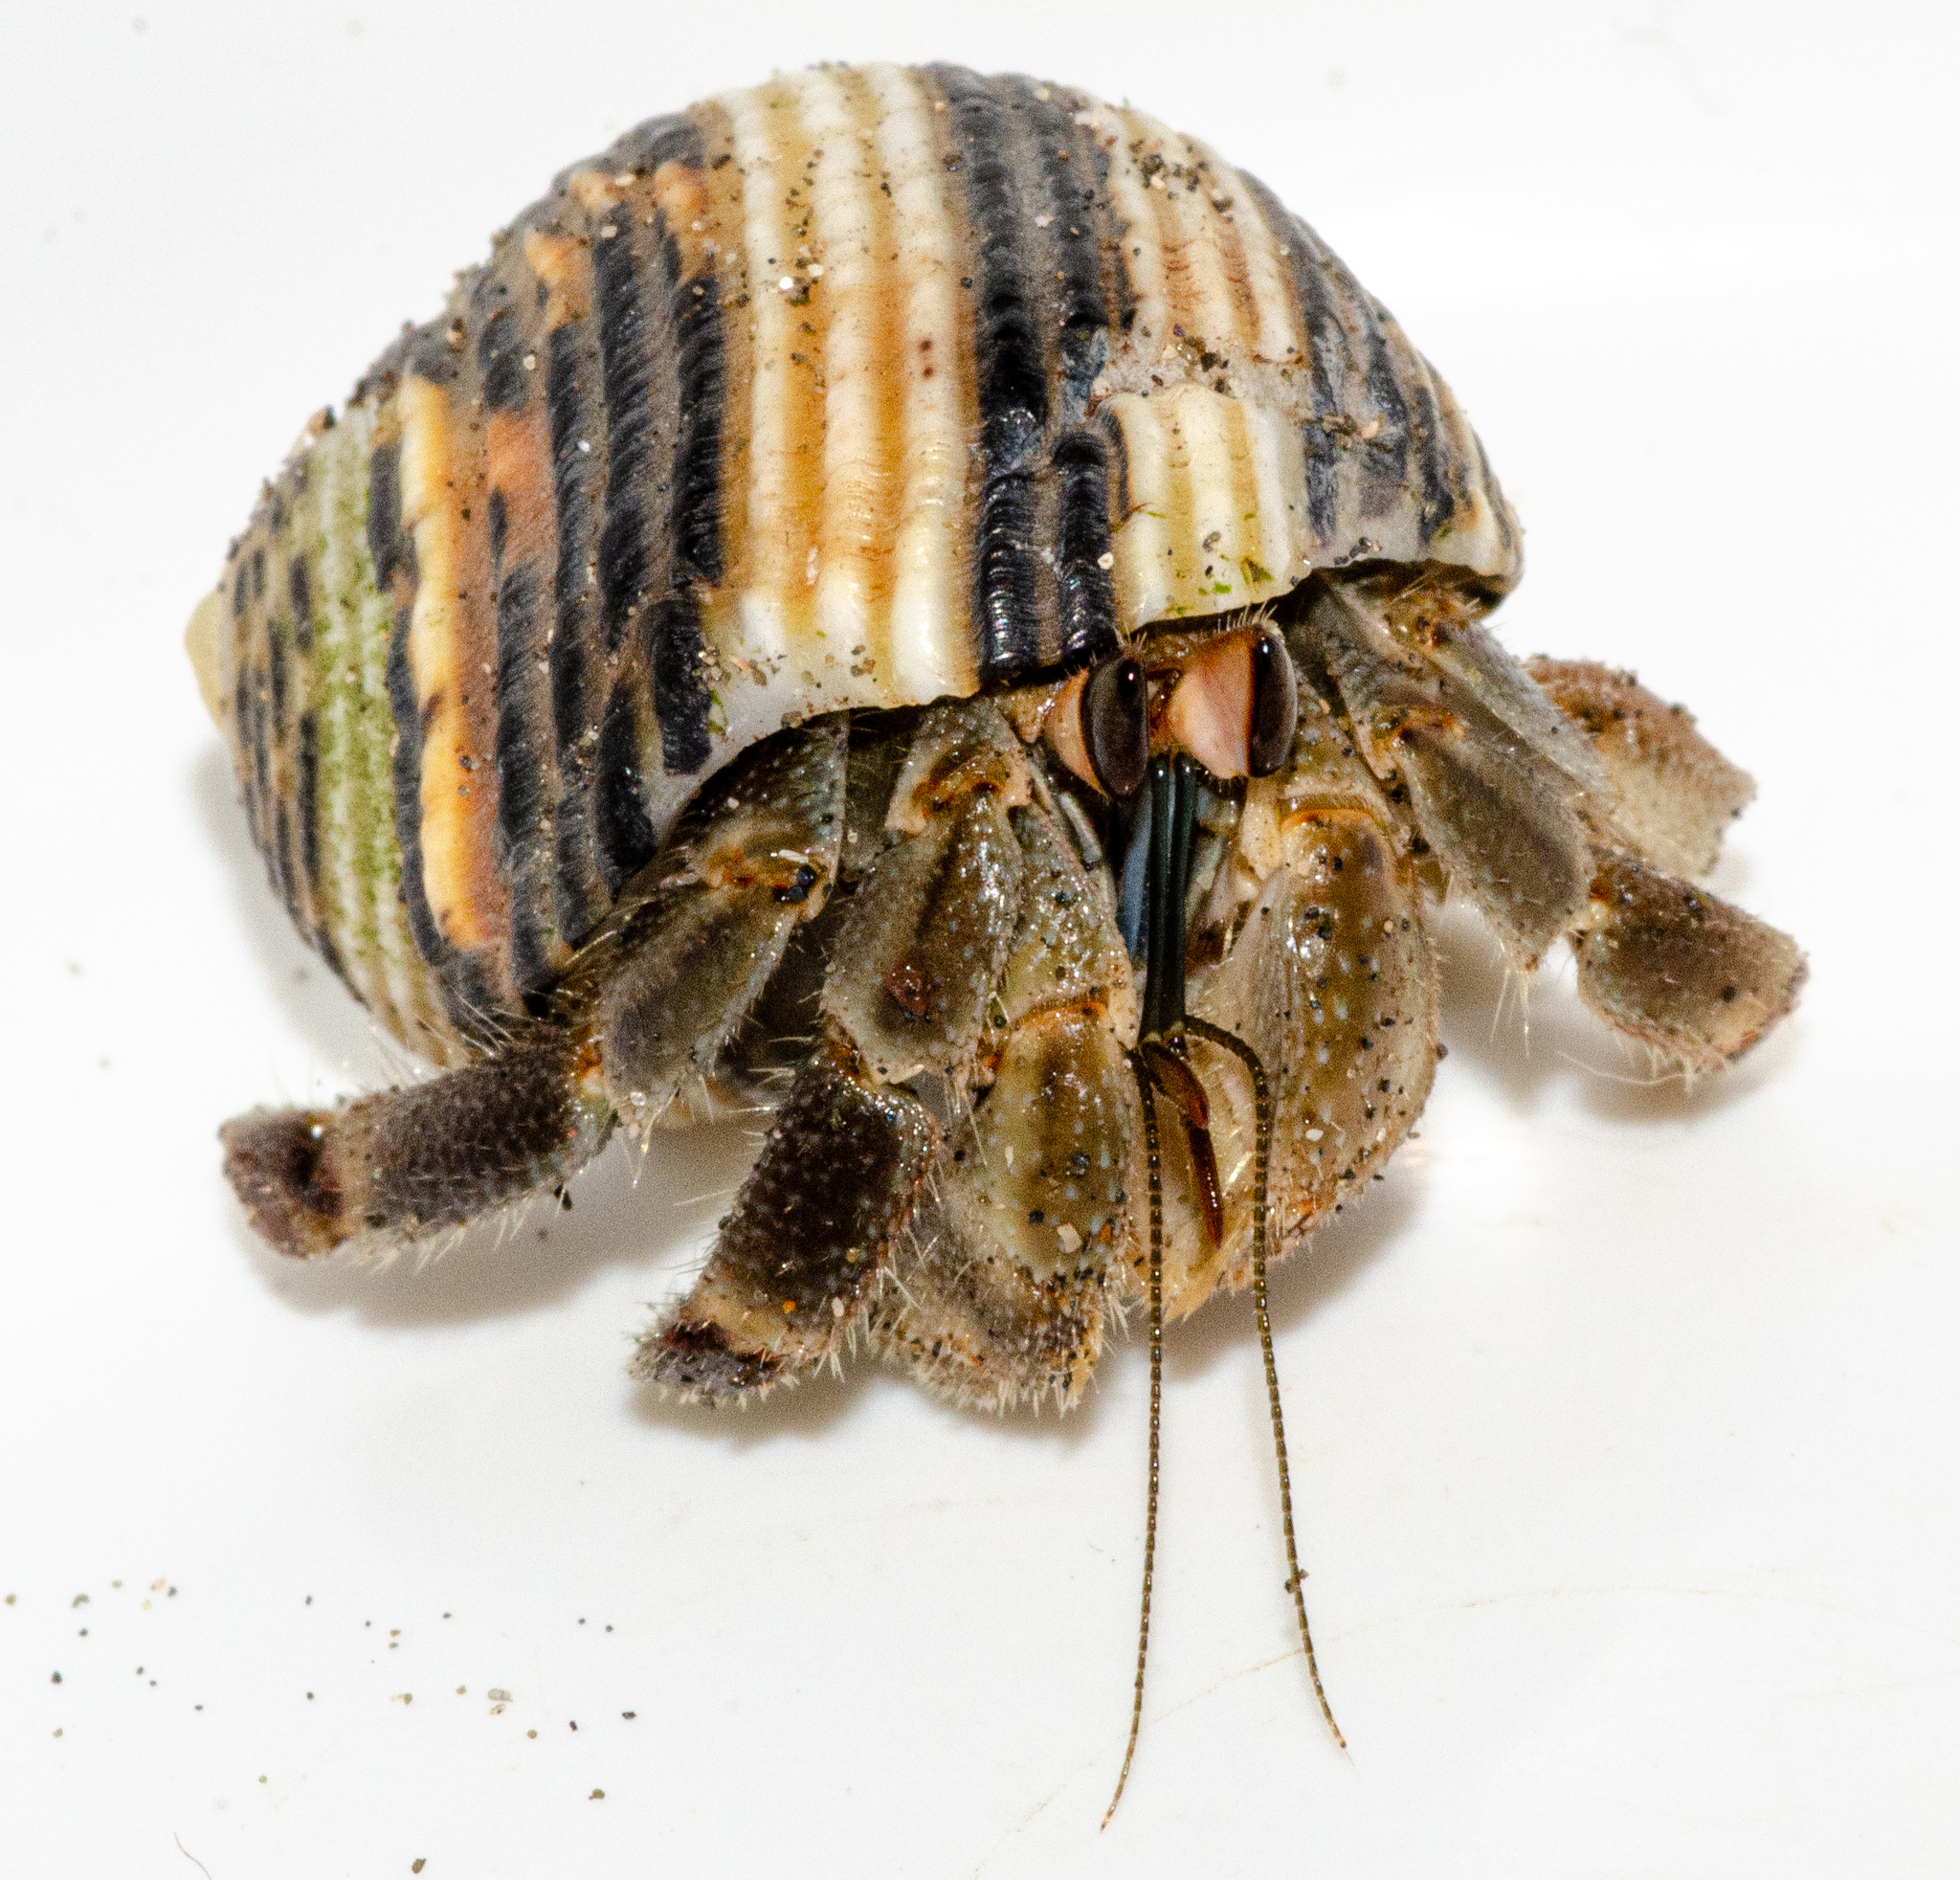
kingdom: Animalia
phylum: Arthropoda
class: Malacostraca
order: Decapoda
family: Coenobitidae
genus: Coenobita
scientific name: Coenobita compressus
